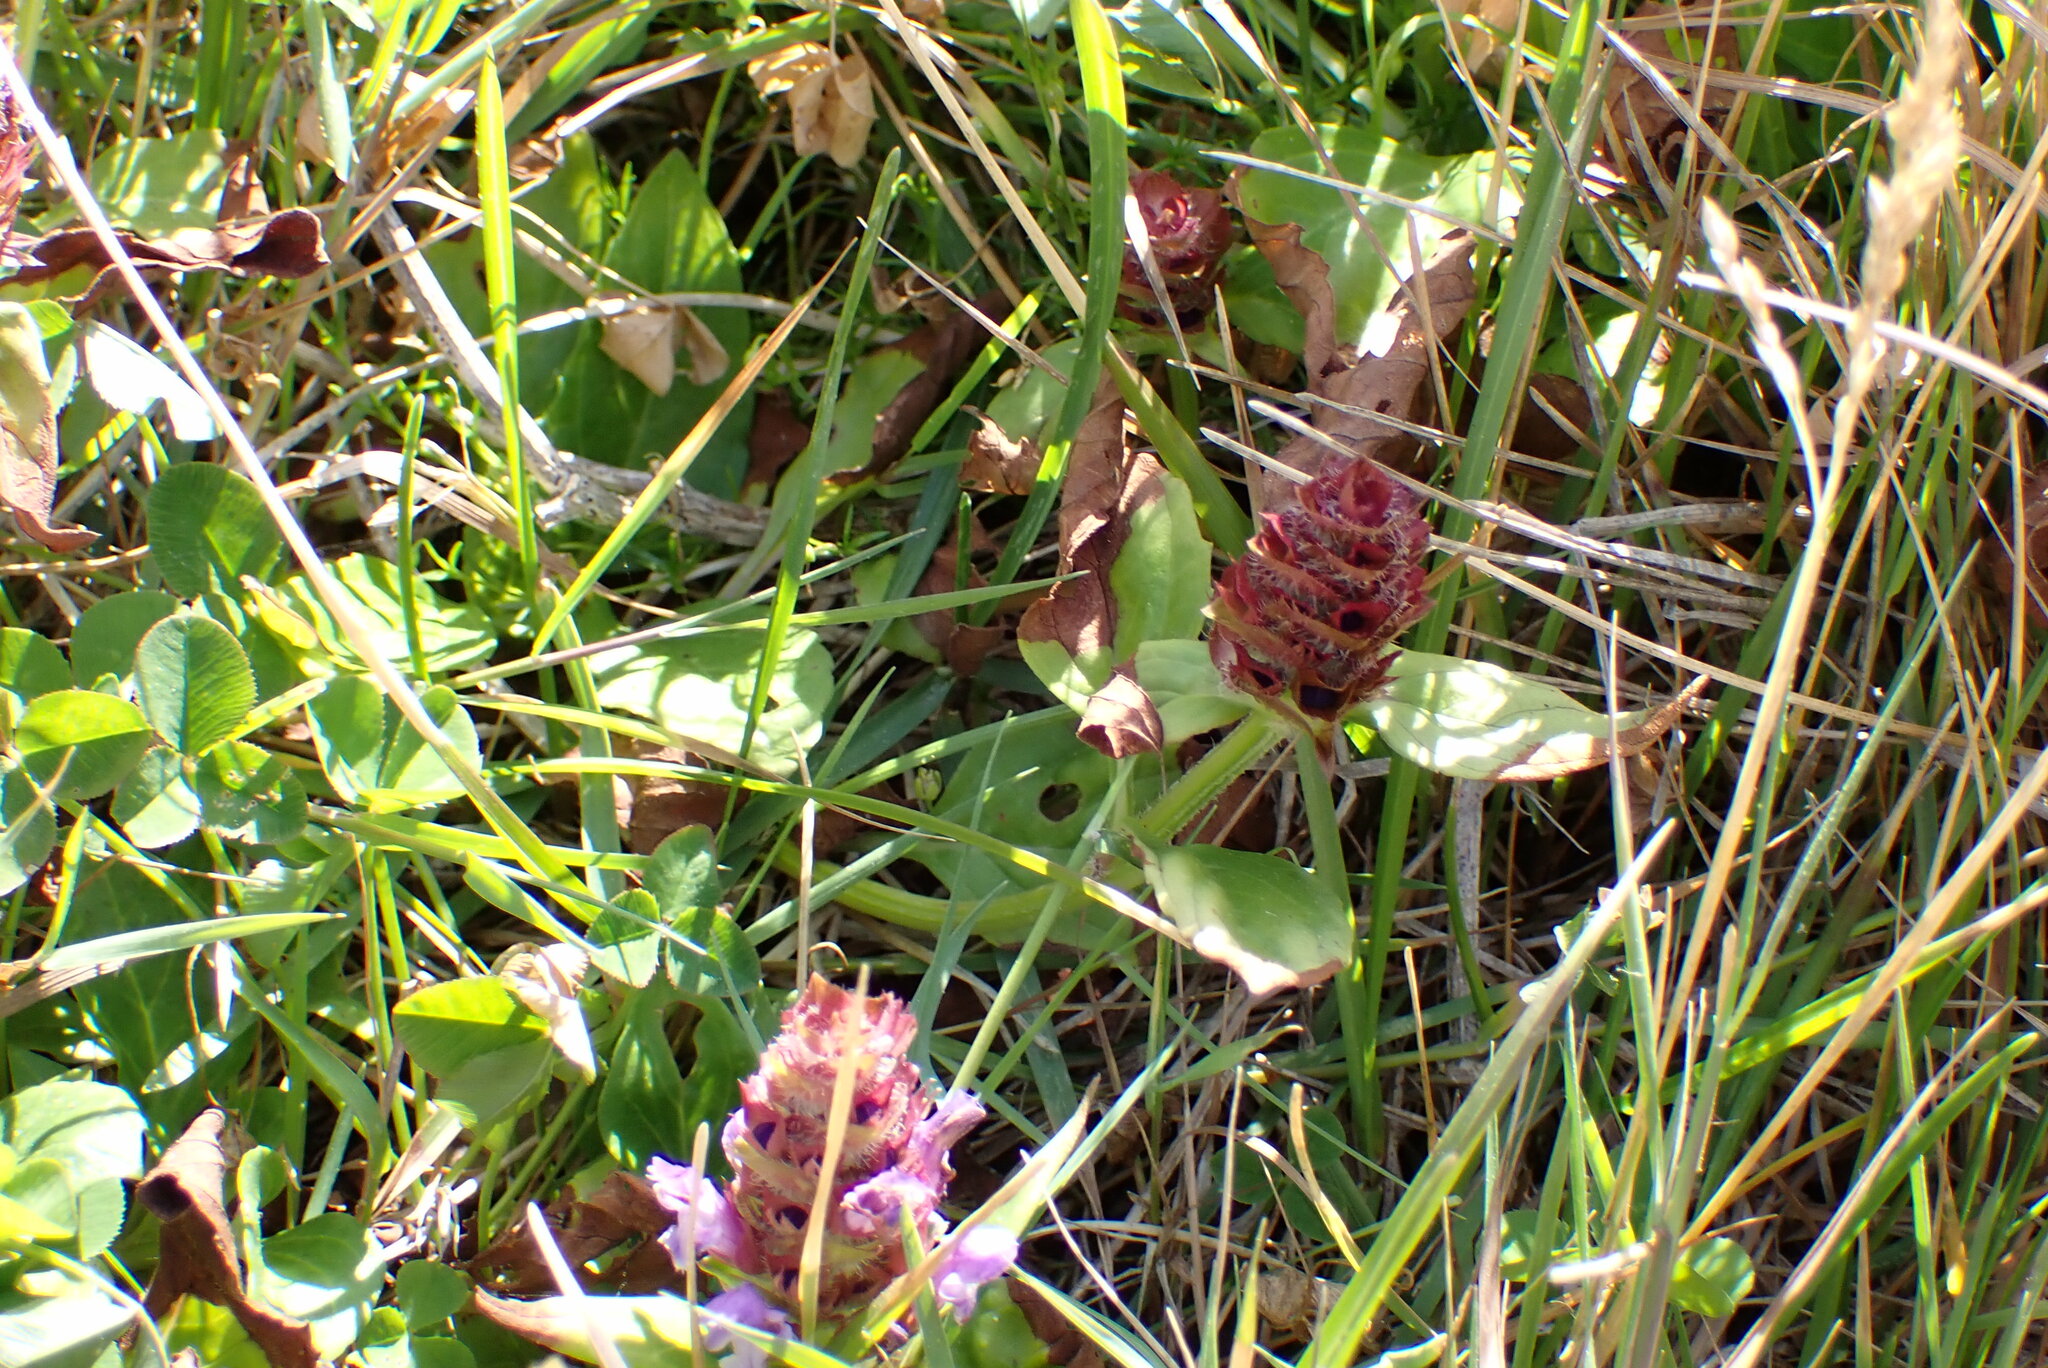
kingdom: Plantae
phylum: Tracheophyta
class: Magnoliopsida
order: Lamiales
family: Lamiaceae
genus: Prunella
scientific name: Prunella vulgaris
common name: Heal-all
